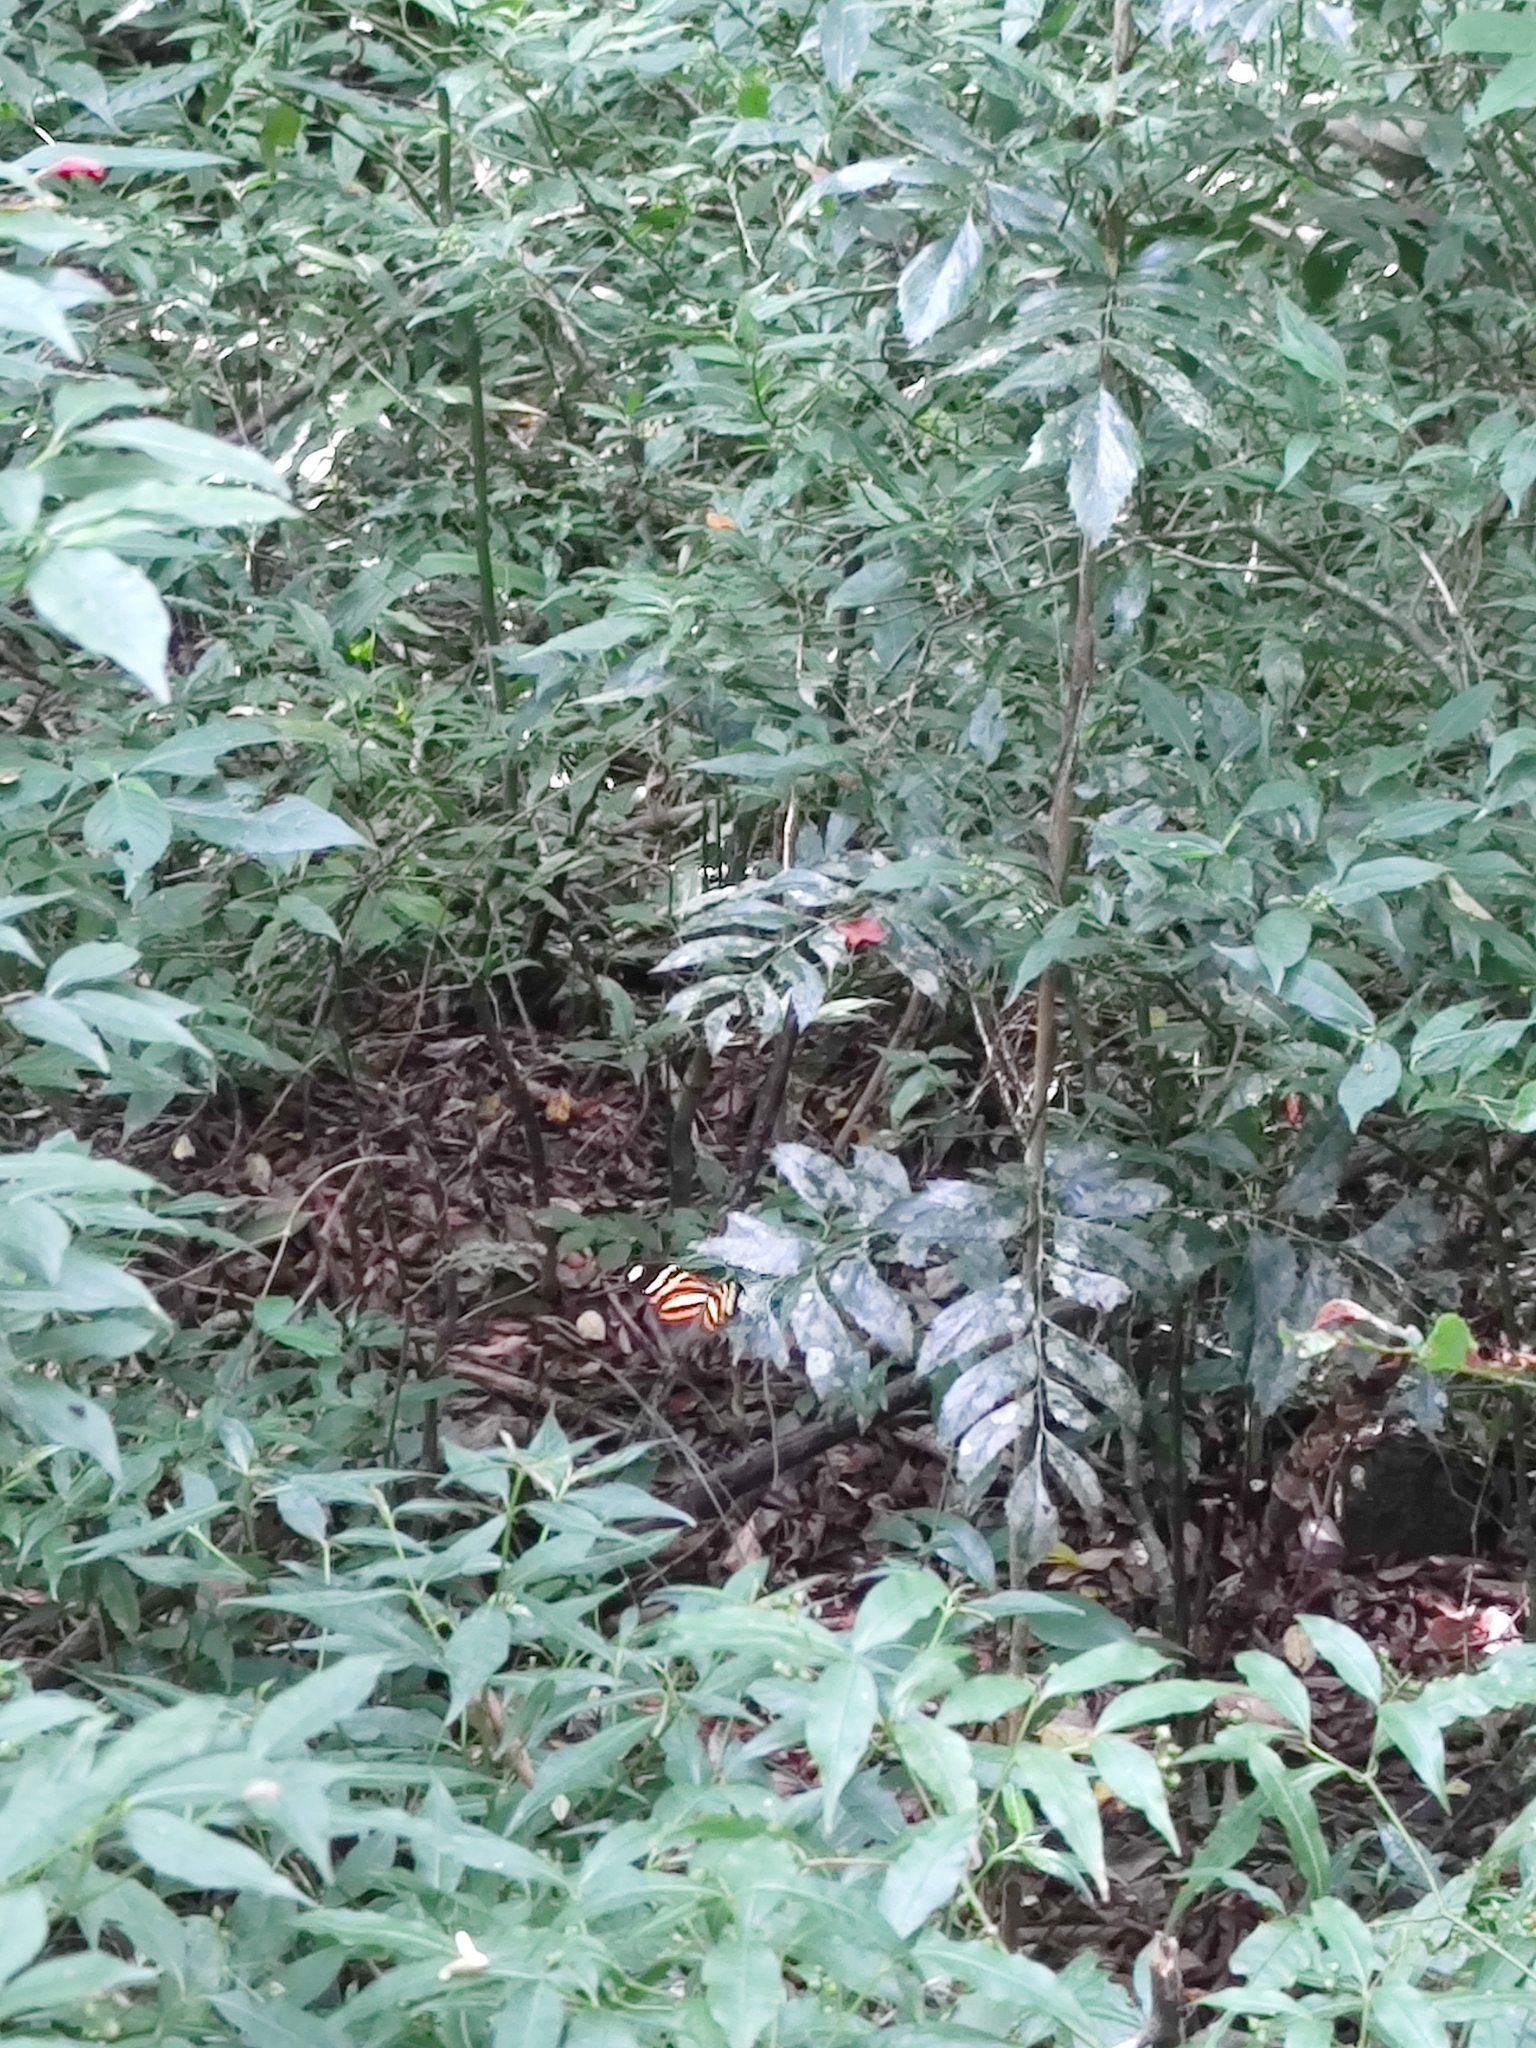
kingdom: Animalia
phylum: Arthropoda
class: Insecta
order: Lepidoptera
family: Nymphalidae
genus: Heliconius
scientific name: Heliconius ethilla
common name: Ethilia longwing
